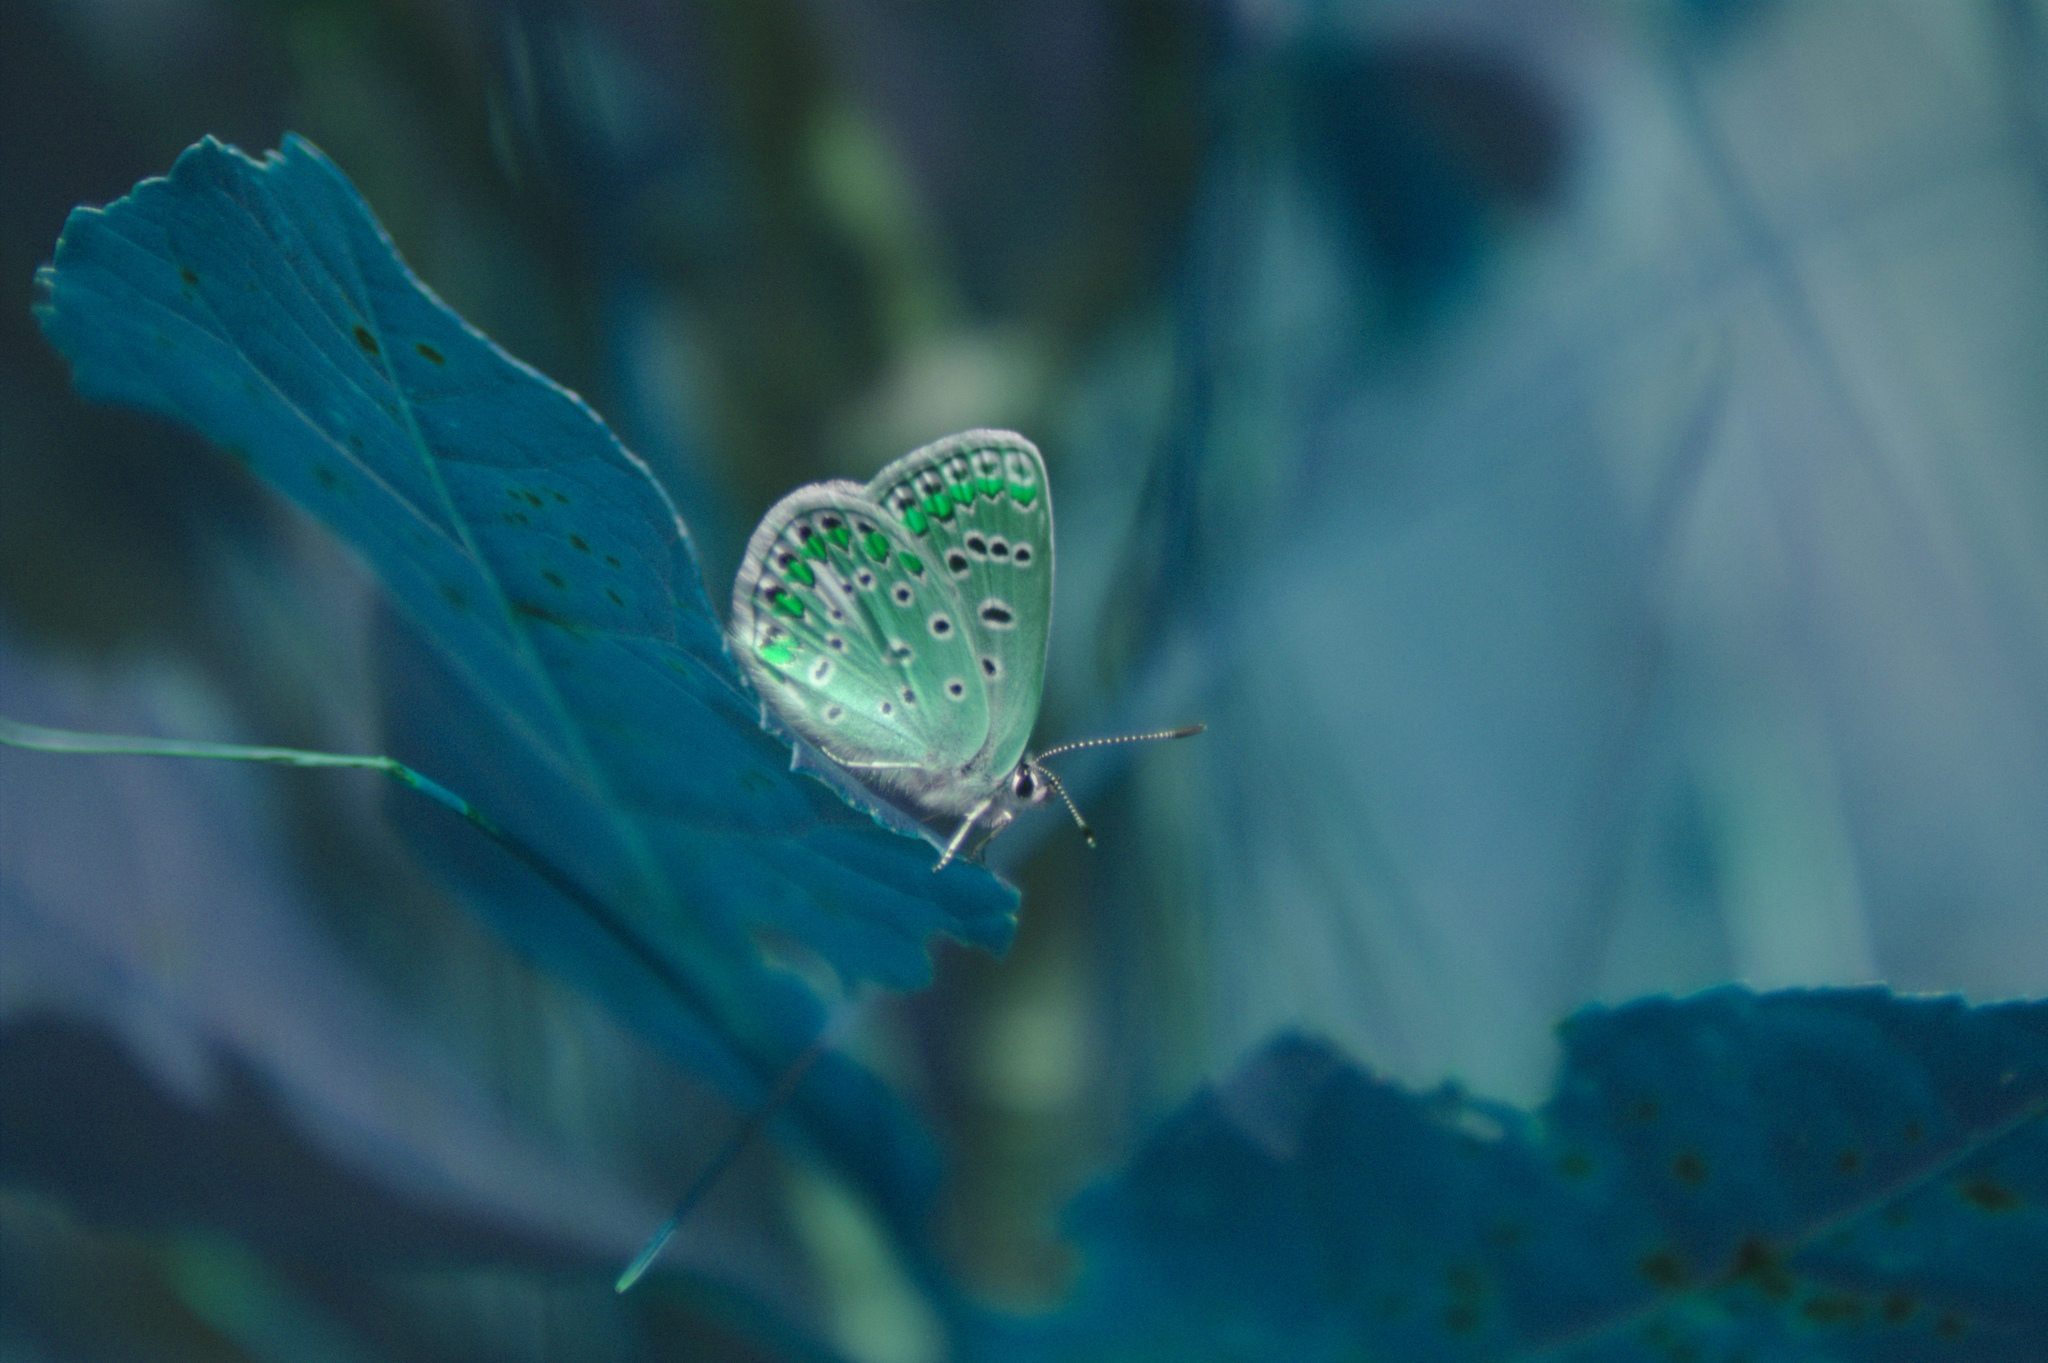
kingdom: Animalia
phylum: Arthropoda
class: Insecta
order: Lepidoptera
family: Lycaenidae
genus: Polyommatus
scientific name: Polyommatus icarus
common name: Common blue
